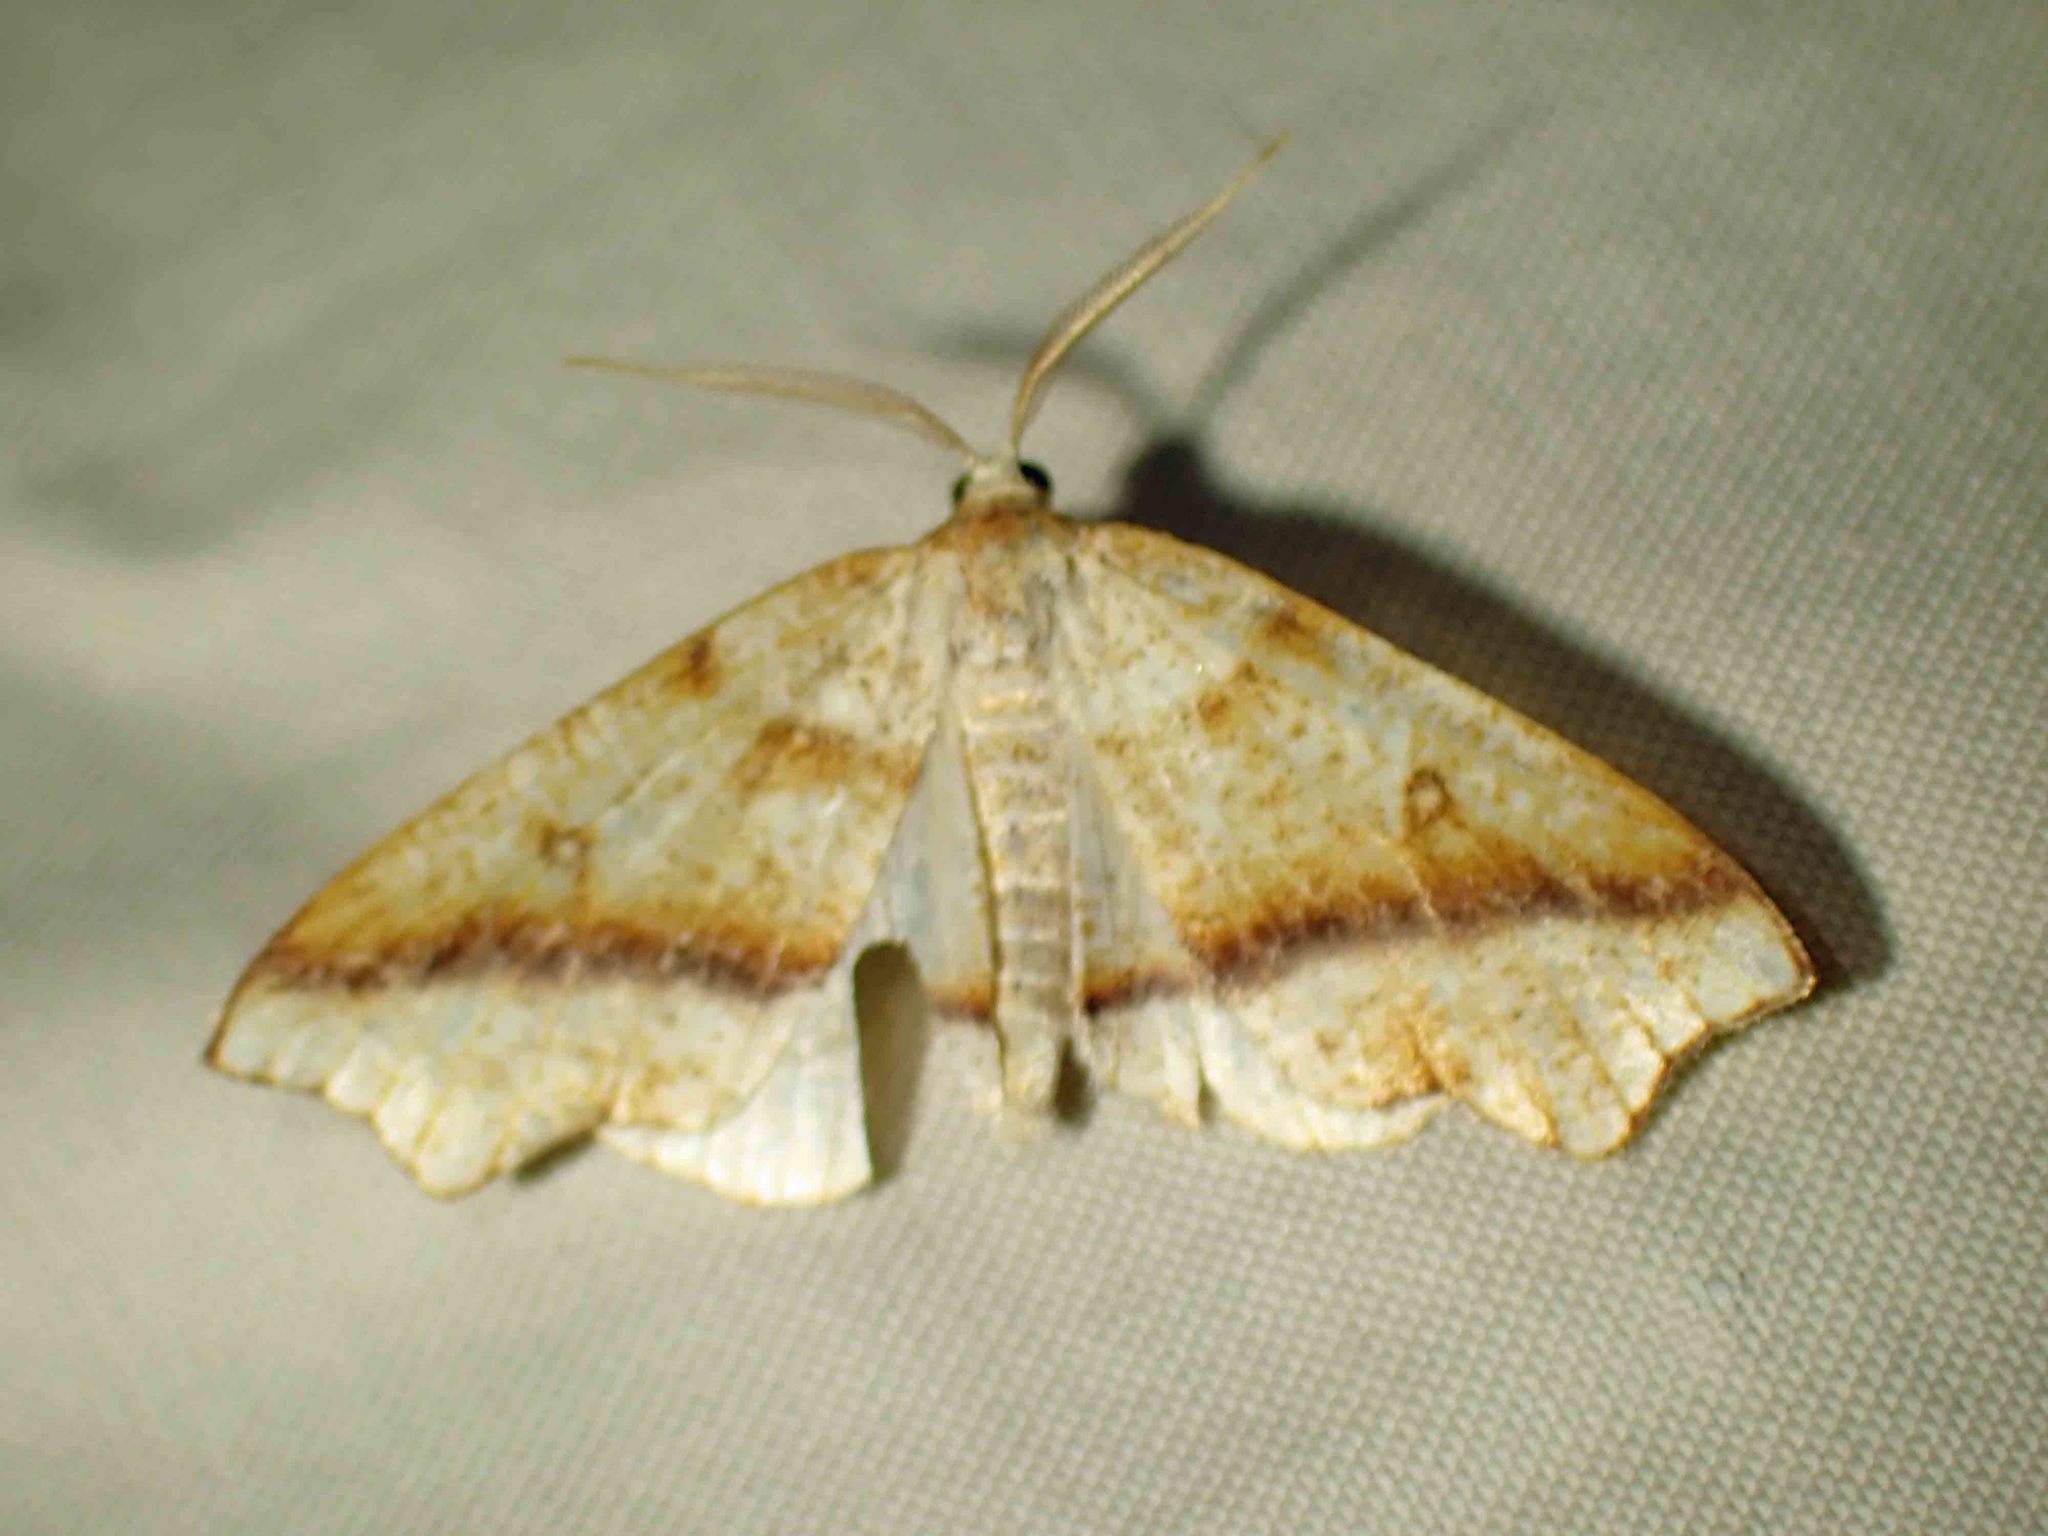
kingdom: Animalia
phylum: Arthropoda
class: Insecta
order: Lepidoptera
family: Geometridae
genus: Plagodis
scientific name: Plagodis alcoolaria
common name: Hollow-spotted plagodis
